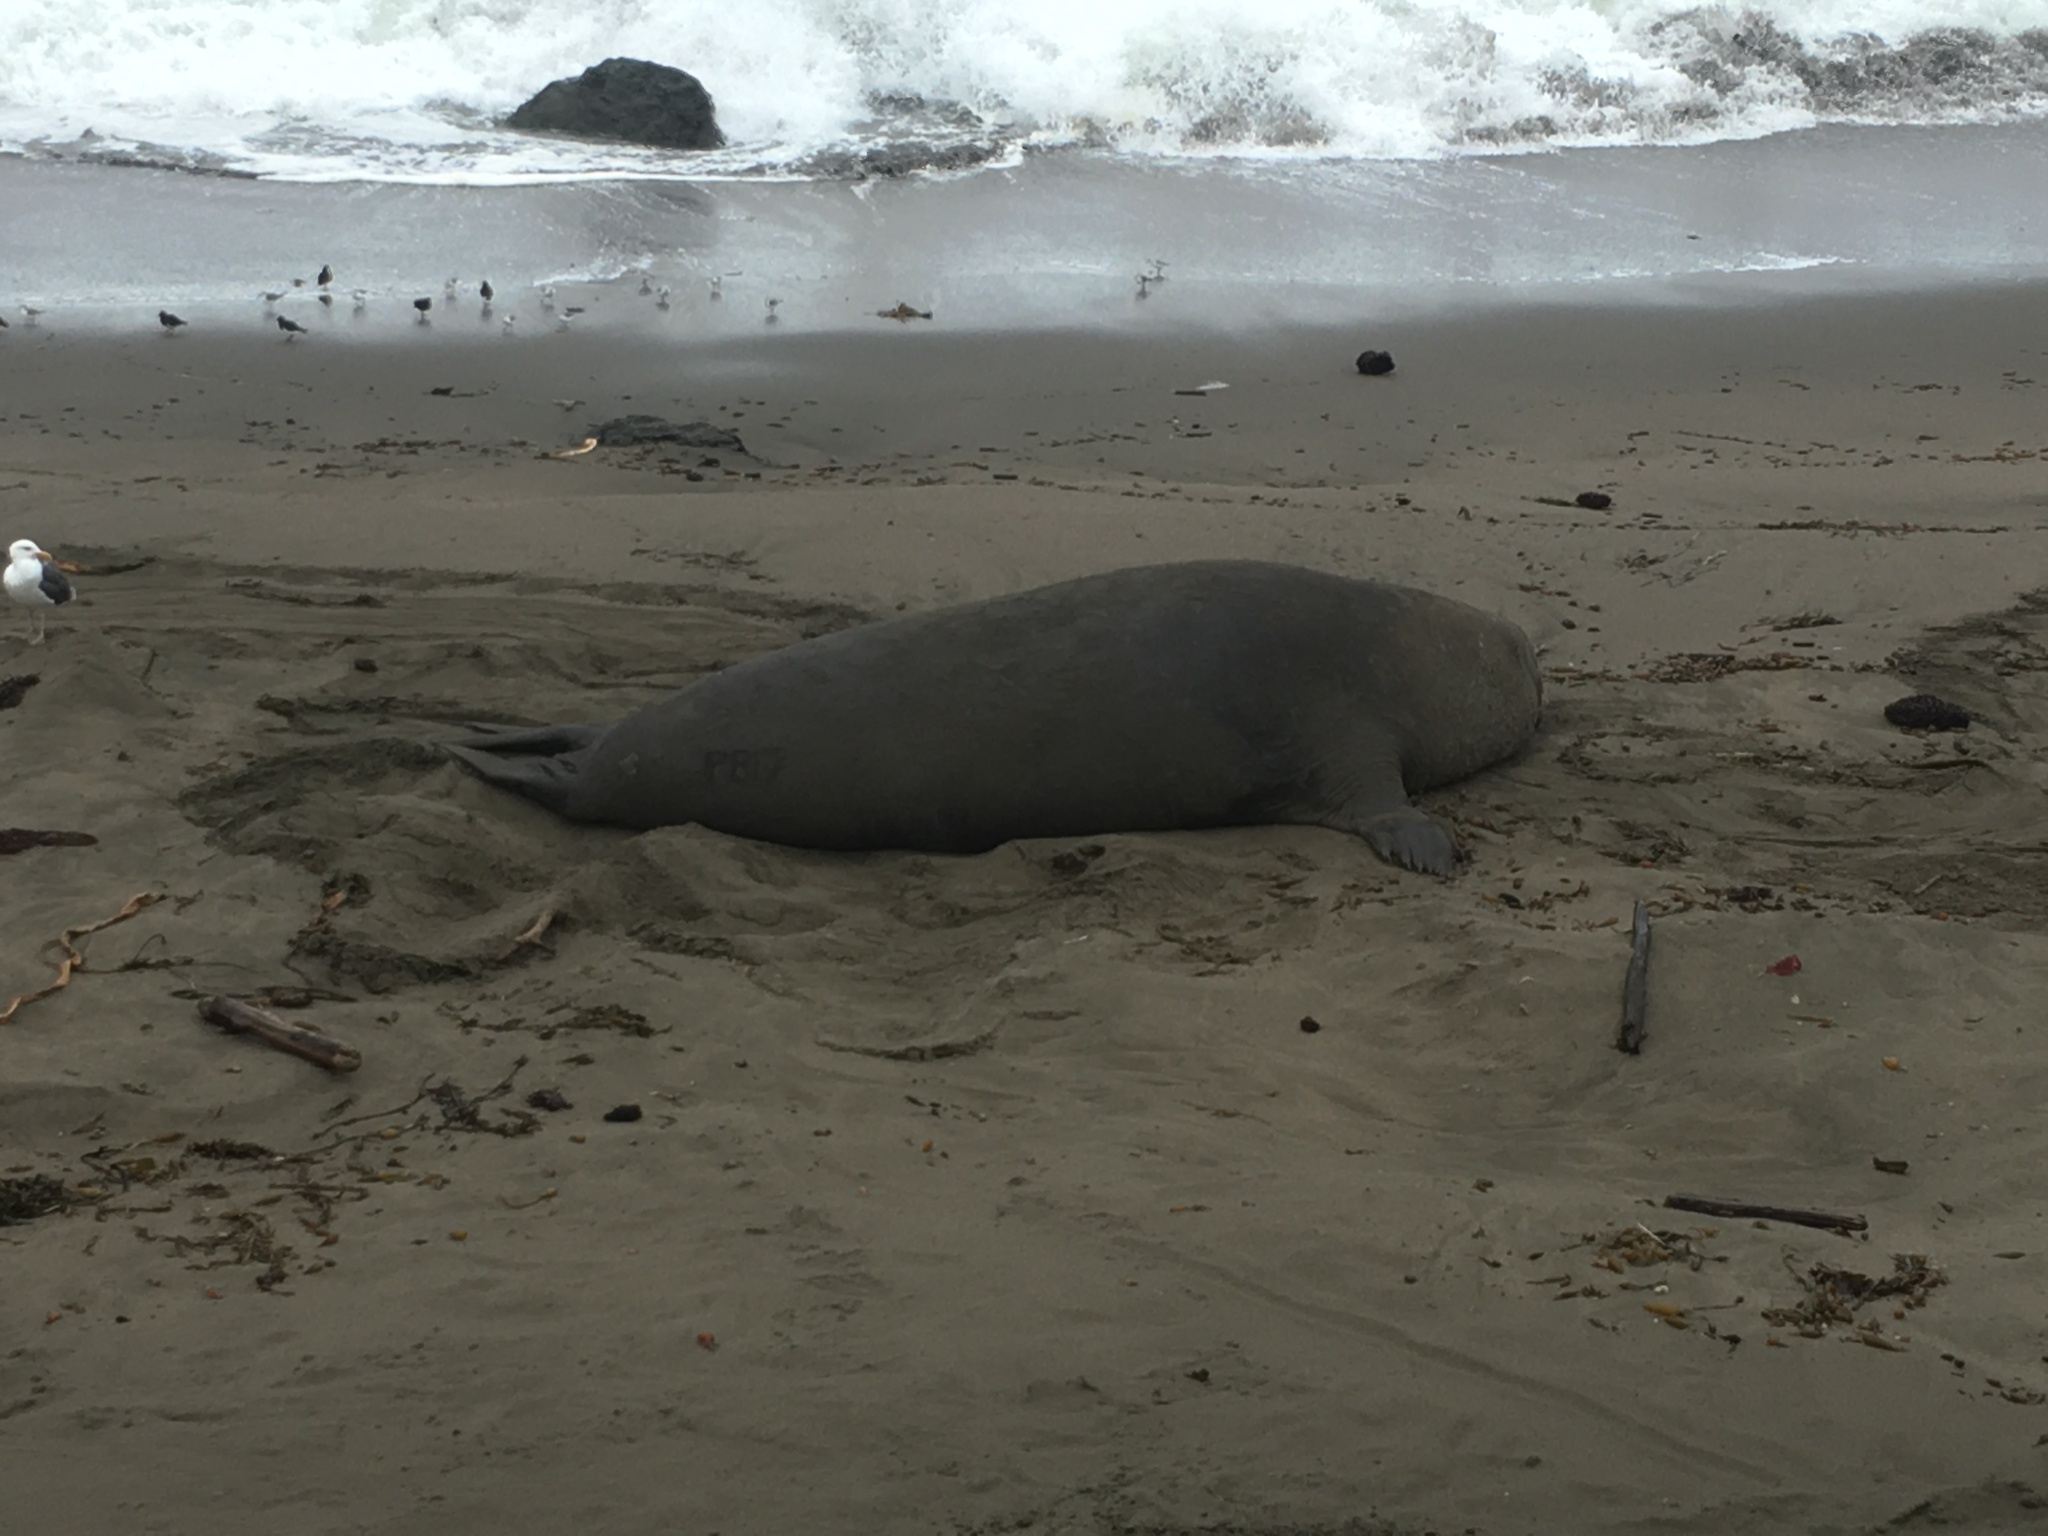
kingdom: Animalia
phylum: Chordata
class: Mammalia
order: Carnivora
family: Phocidae
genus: Mirounga
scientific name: Mirounga angustirostris
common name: Northern elephant seal
